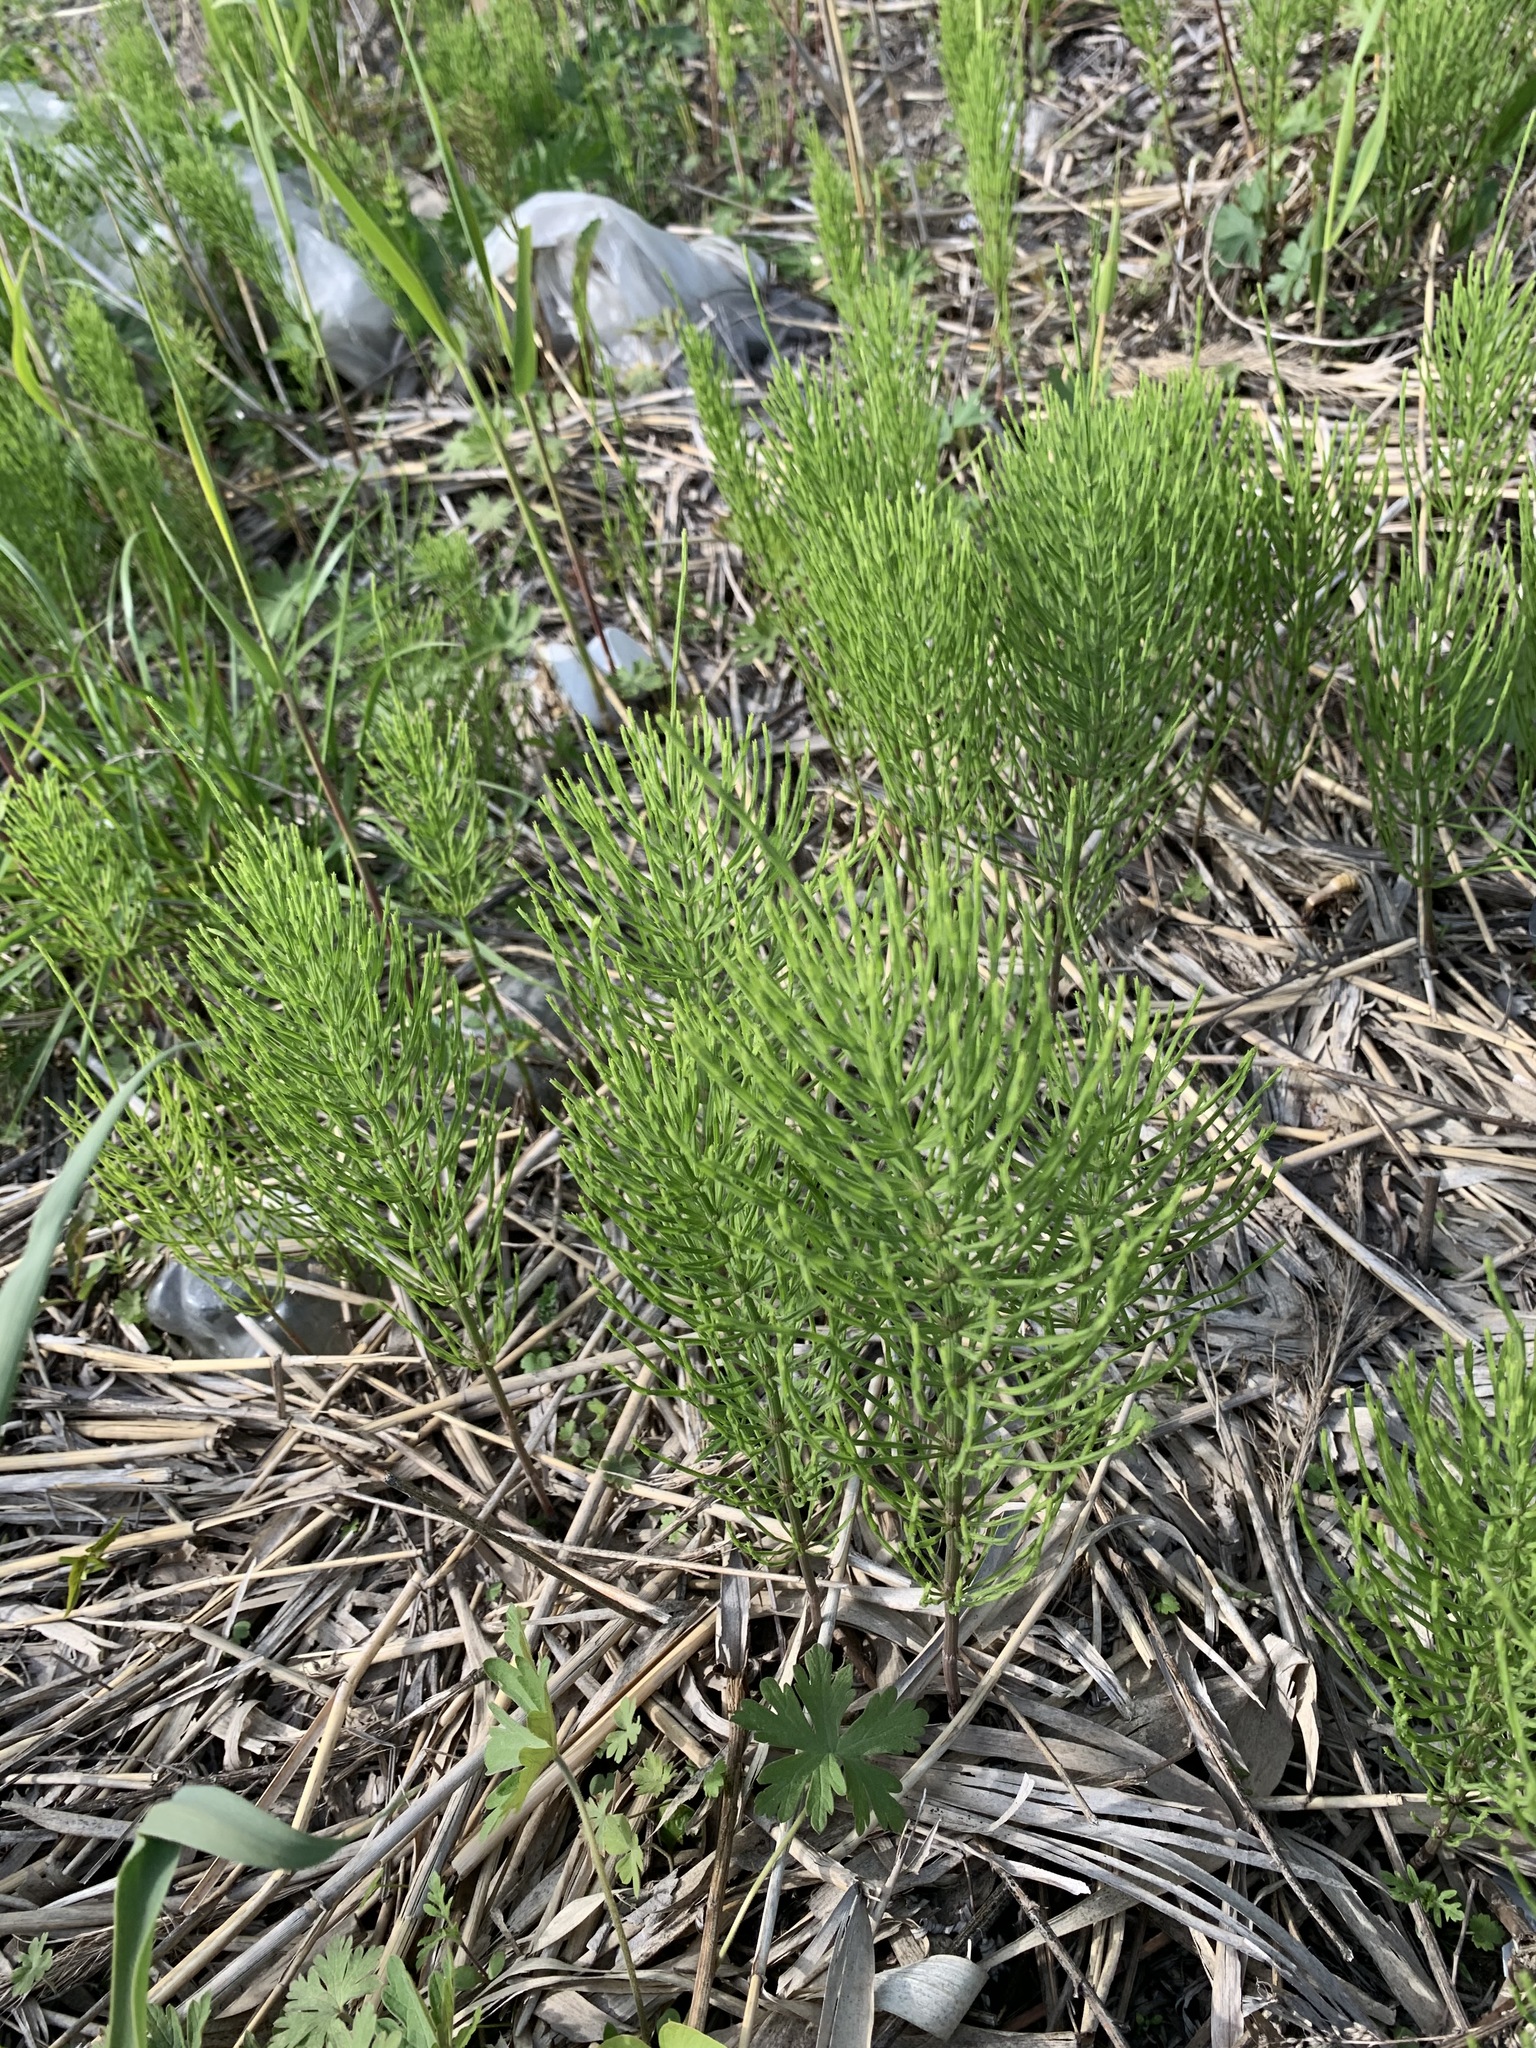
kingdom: Plantae
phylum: Tracheophyta
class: Polypodiopsida
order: Equisetales
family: Equisetaceae
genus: Equisetum
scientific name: Equisetum arvense
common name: Field horsetail
